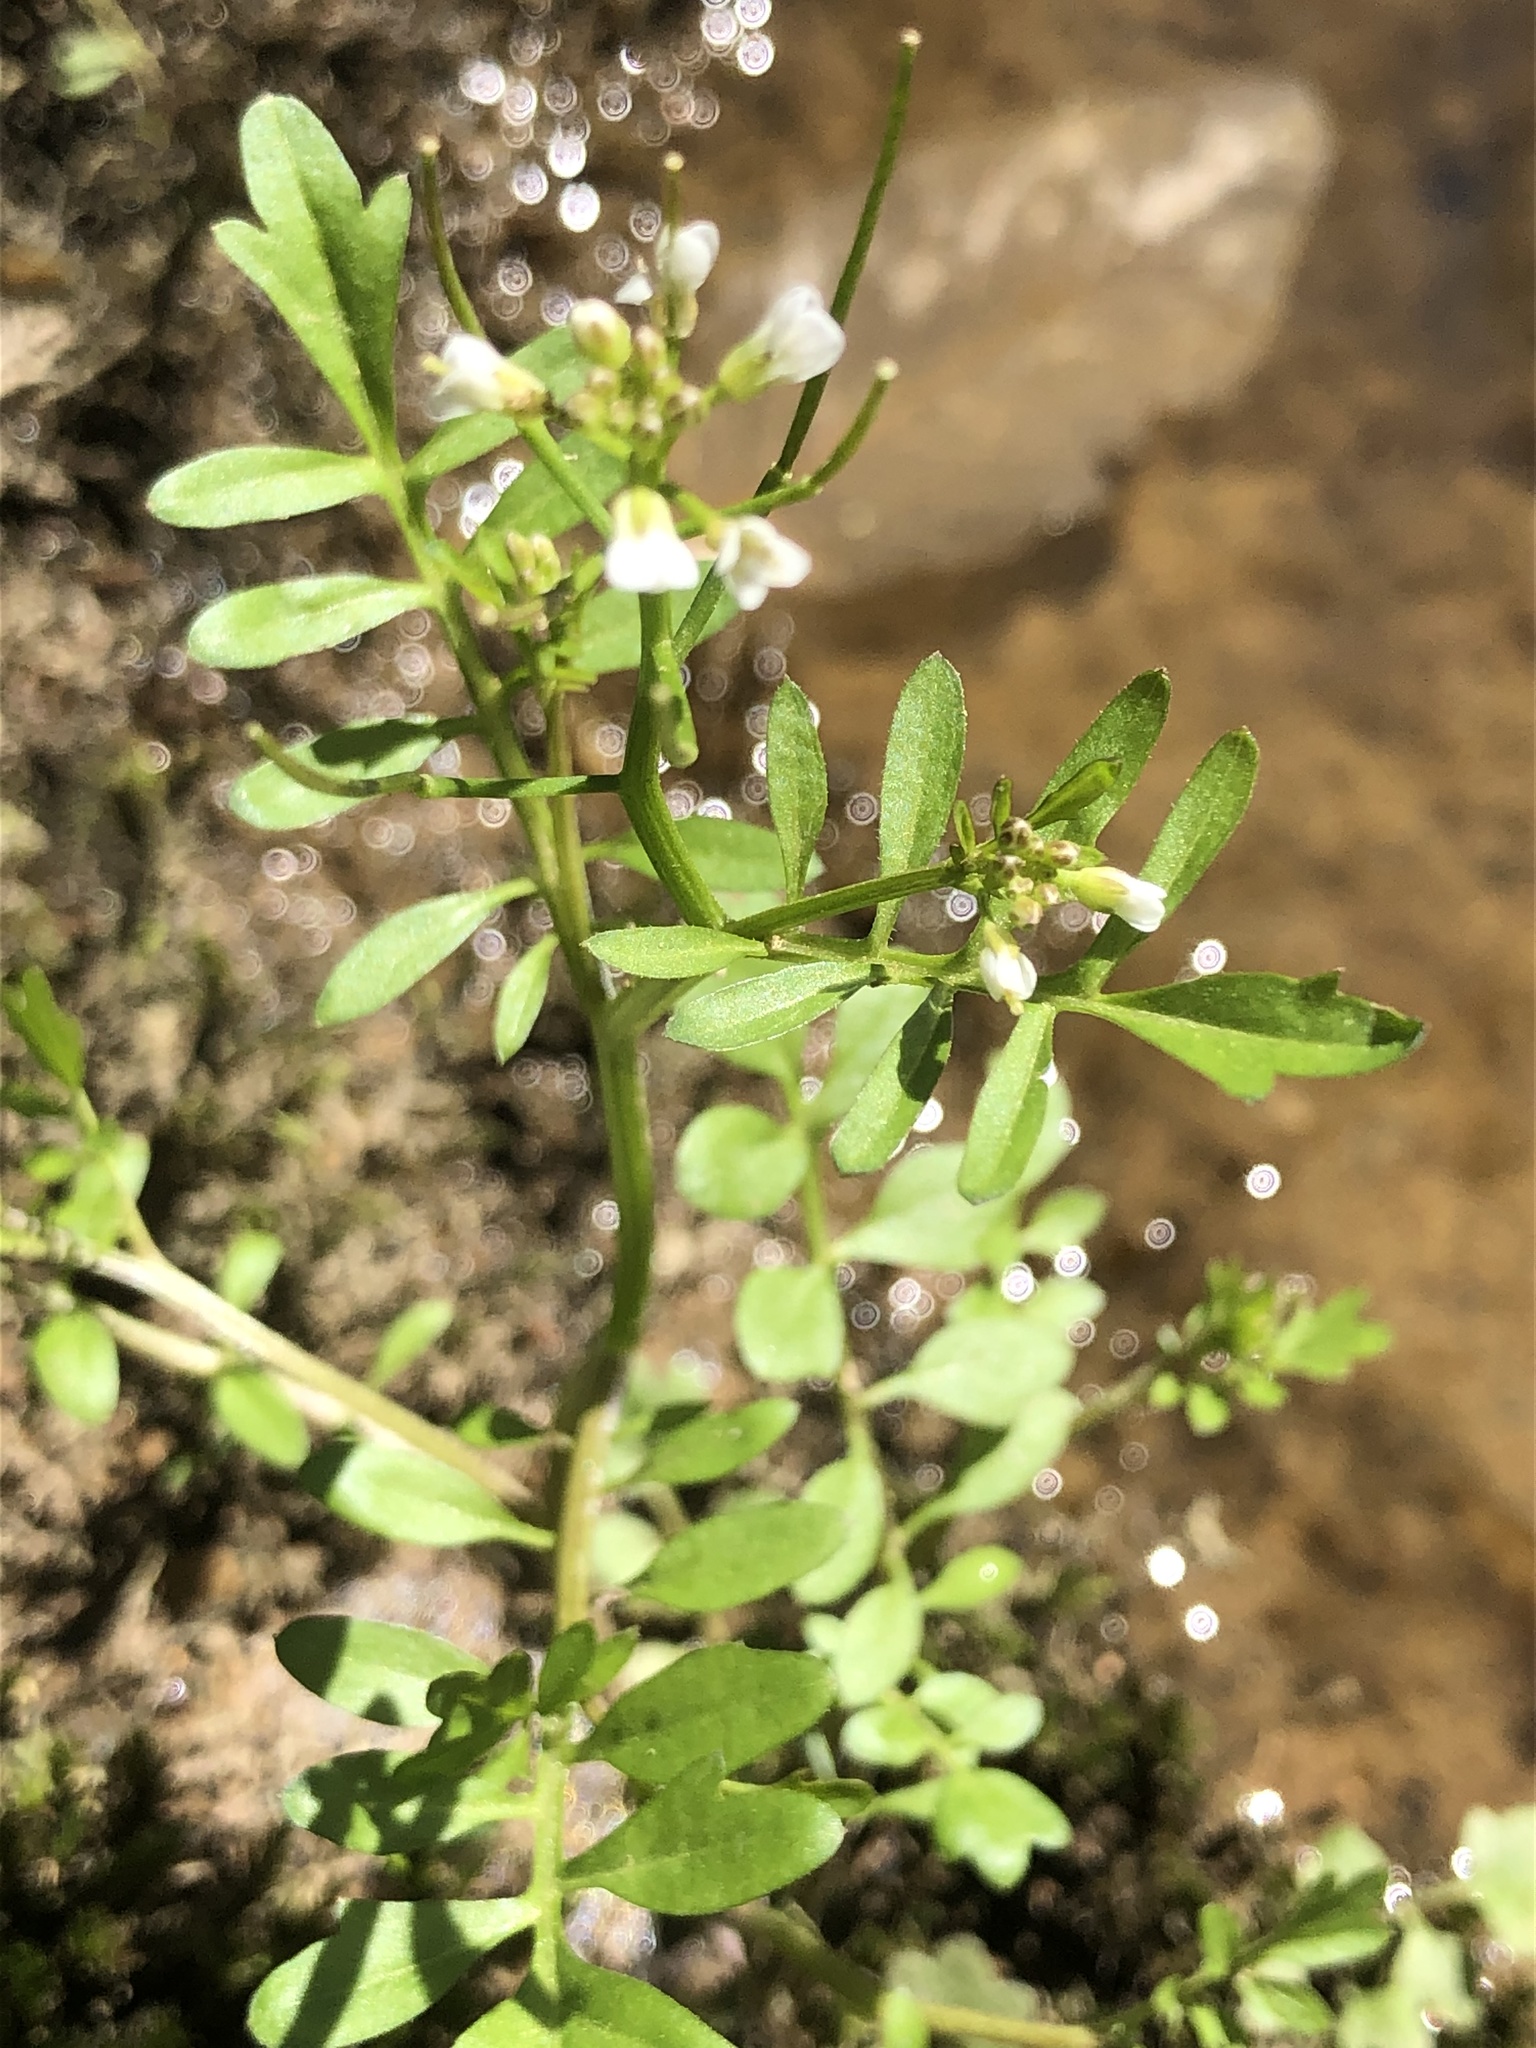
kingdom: Plantae
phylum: Tracheophyta
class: Magnoliopsida
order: Brassicales
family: Brassicaceae
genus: Cardamine
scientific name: Cardamine pensylvanica
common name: Pennsylvania bittercress
